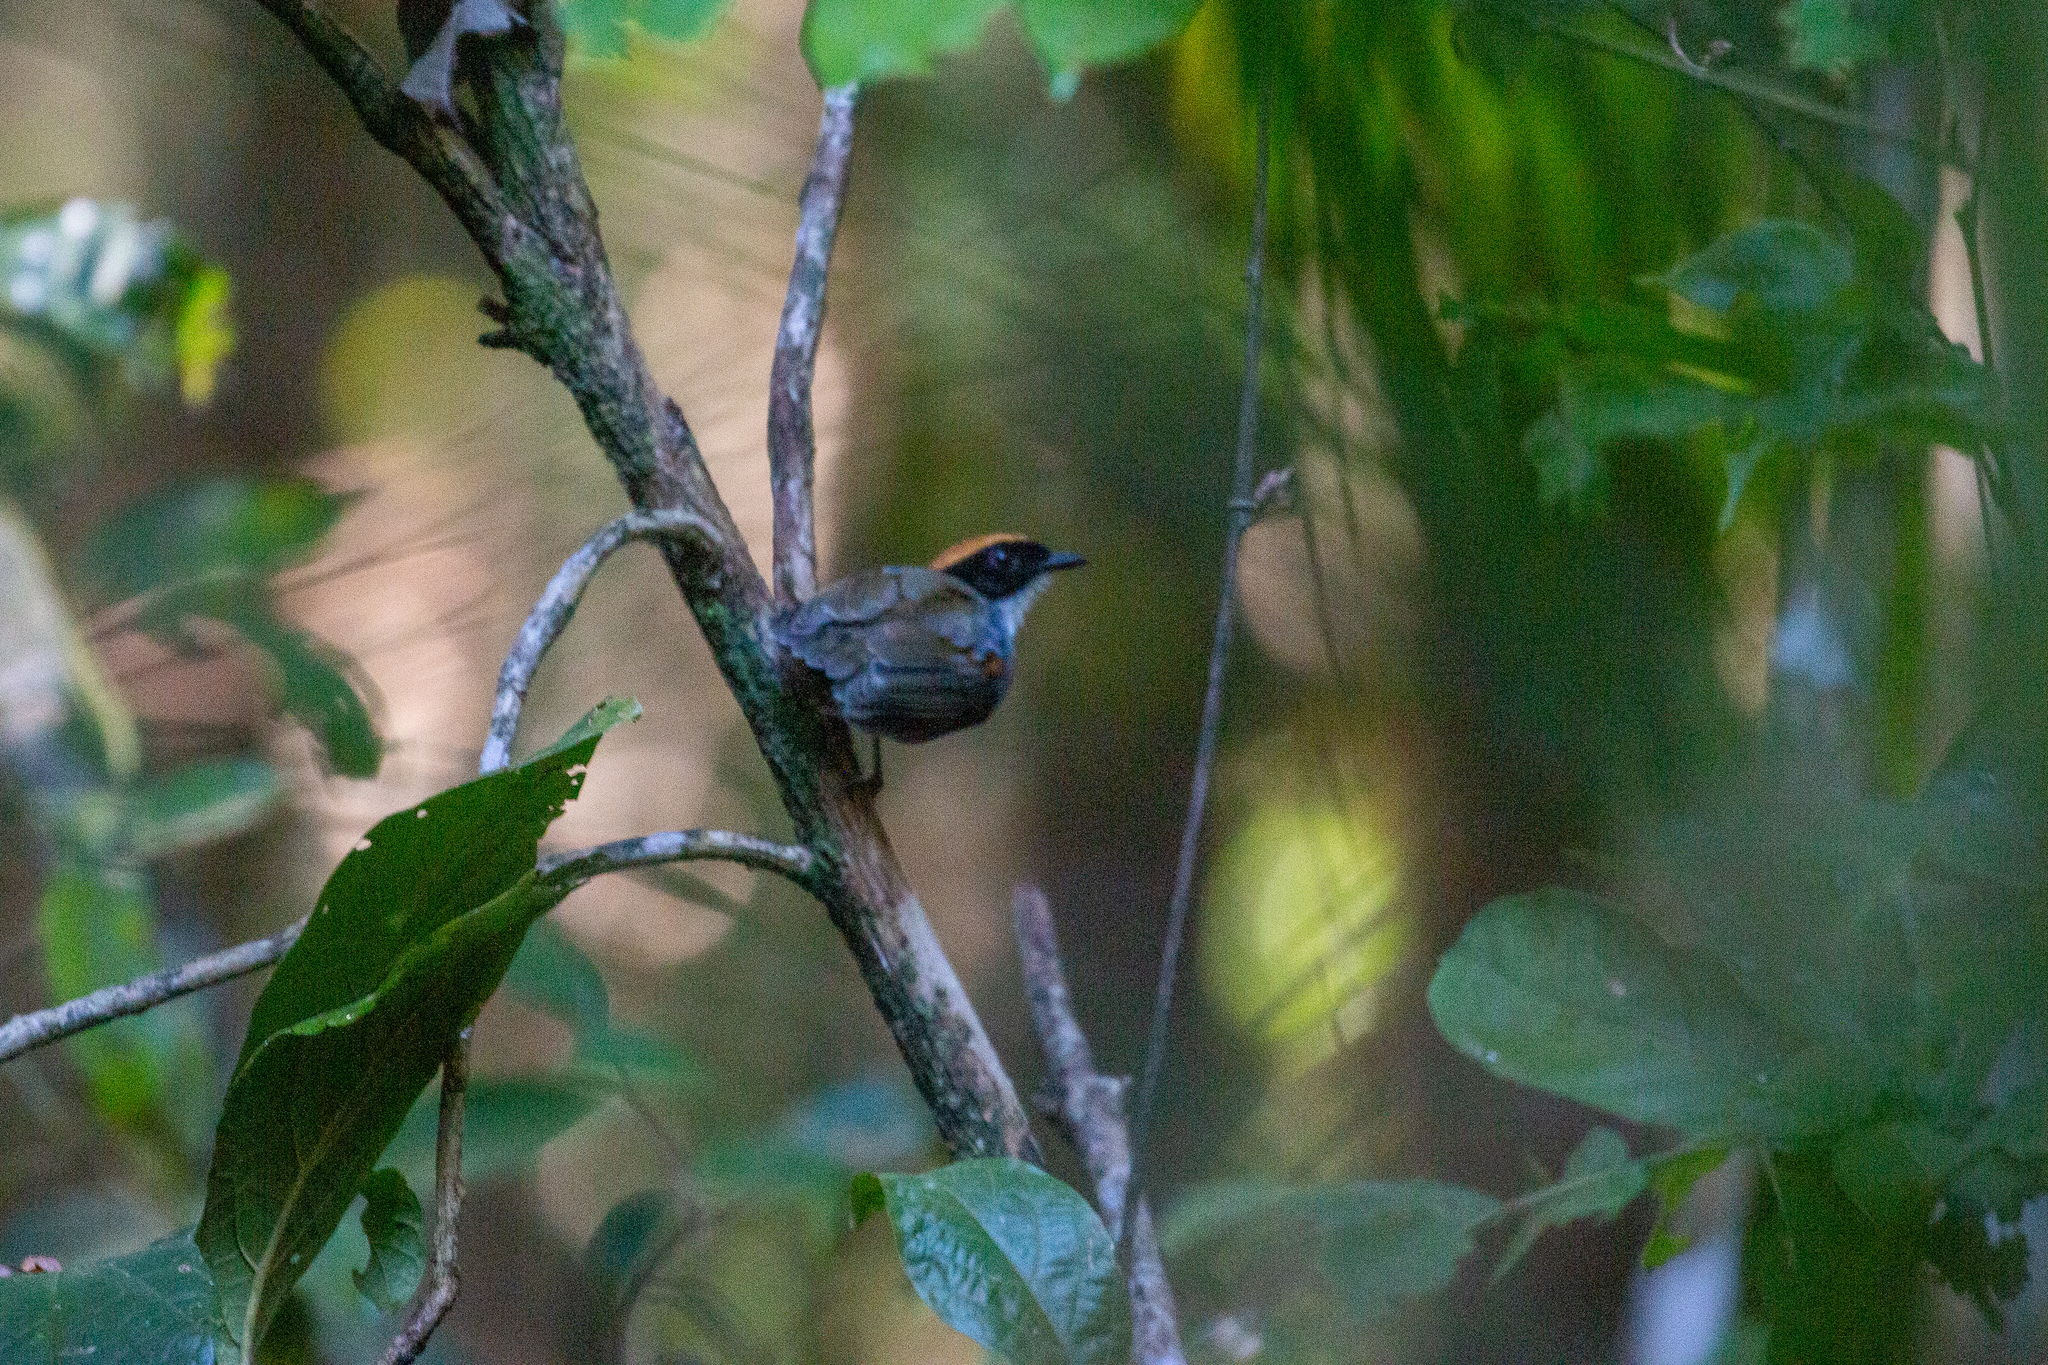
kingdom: Animalia
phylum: Chordata
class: Aves
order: Passeriformes
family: Conopophagidae
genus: Conopophaga
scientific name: Conopophaga melanops
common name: Black-cheeked gnateater
